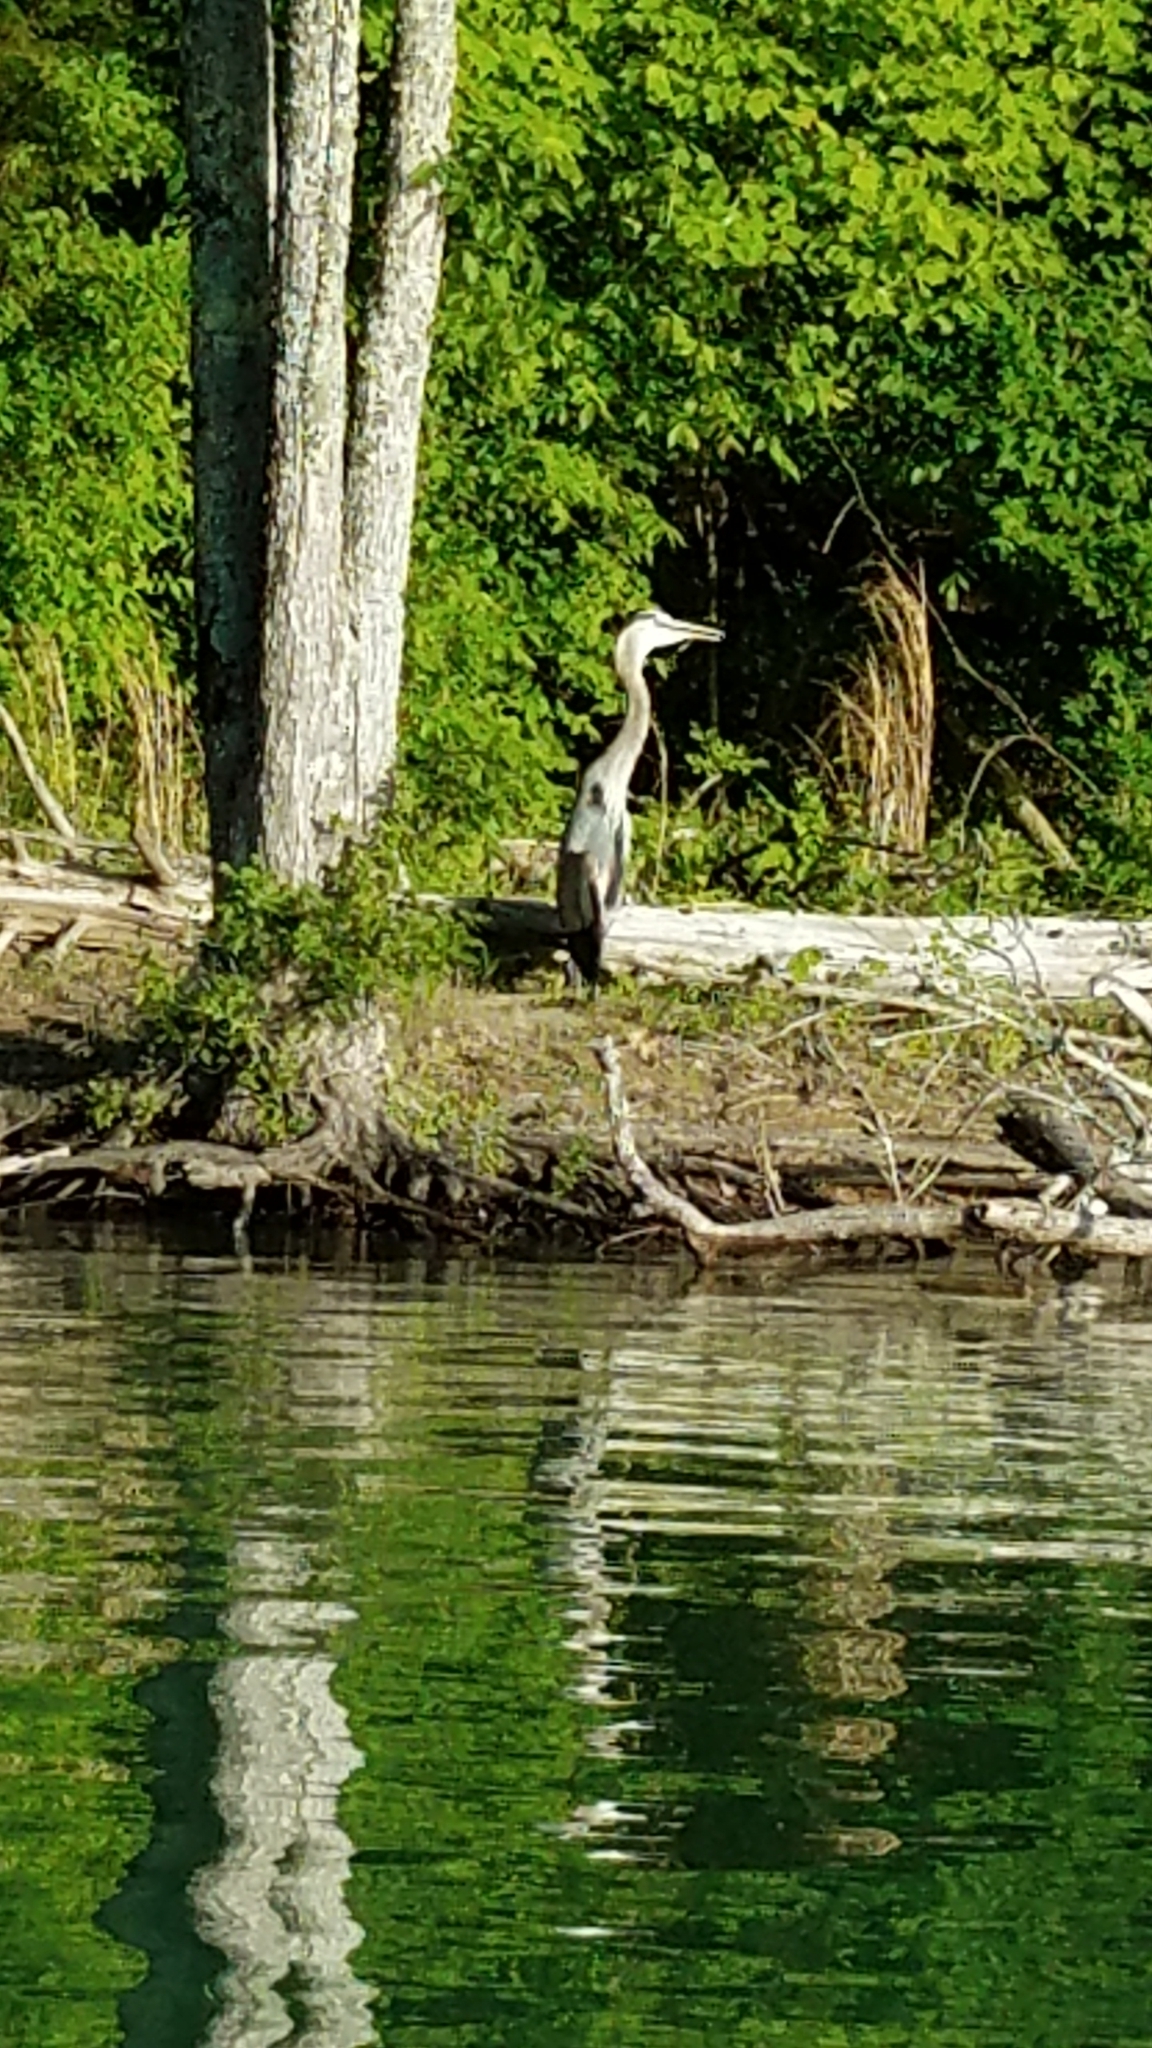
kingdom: Animalia
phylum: Chordata
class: Aves
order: Pelecaniformes
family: Ardeidae
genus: Ardea
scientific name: Ardea herodias
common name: Great blue heron
